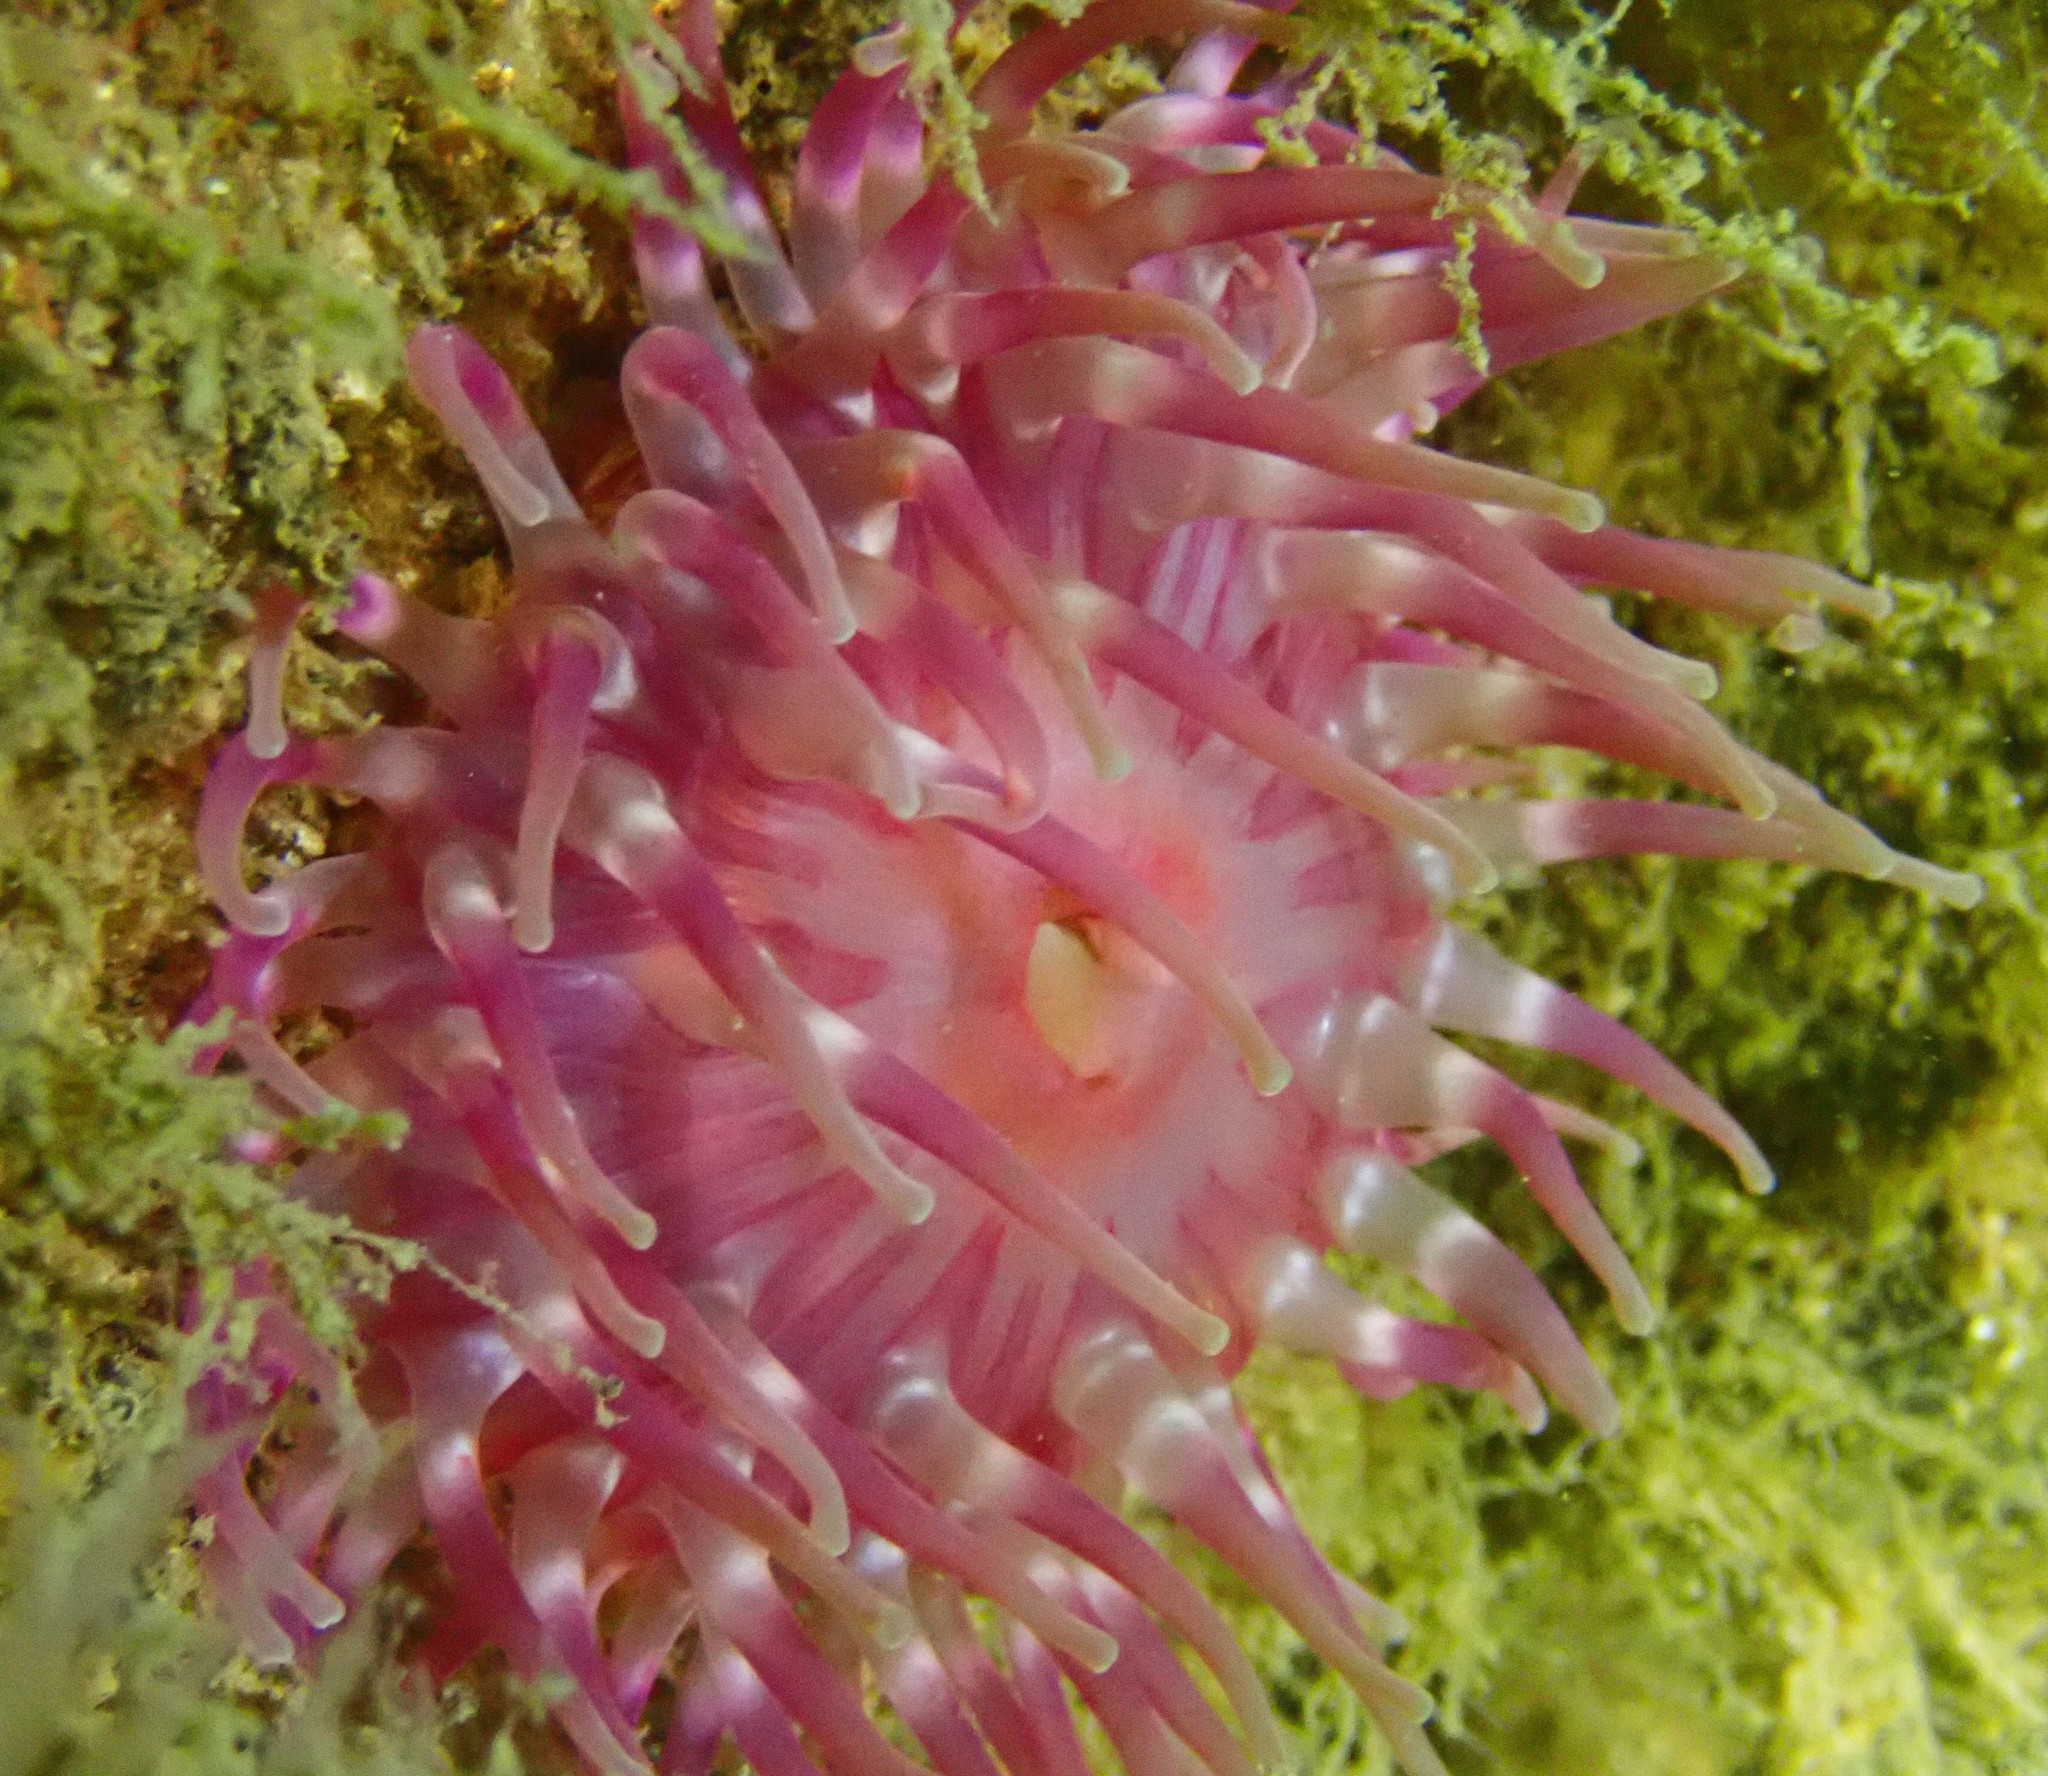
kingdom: Animalia
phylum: Cnidaria
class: Anthozoa
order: Actiniaria
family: Actiniidae
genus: Urticina
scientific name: Urticina felina
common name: Dahlia anemone
